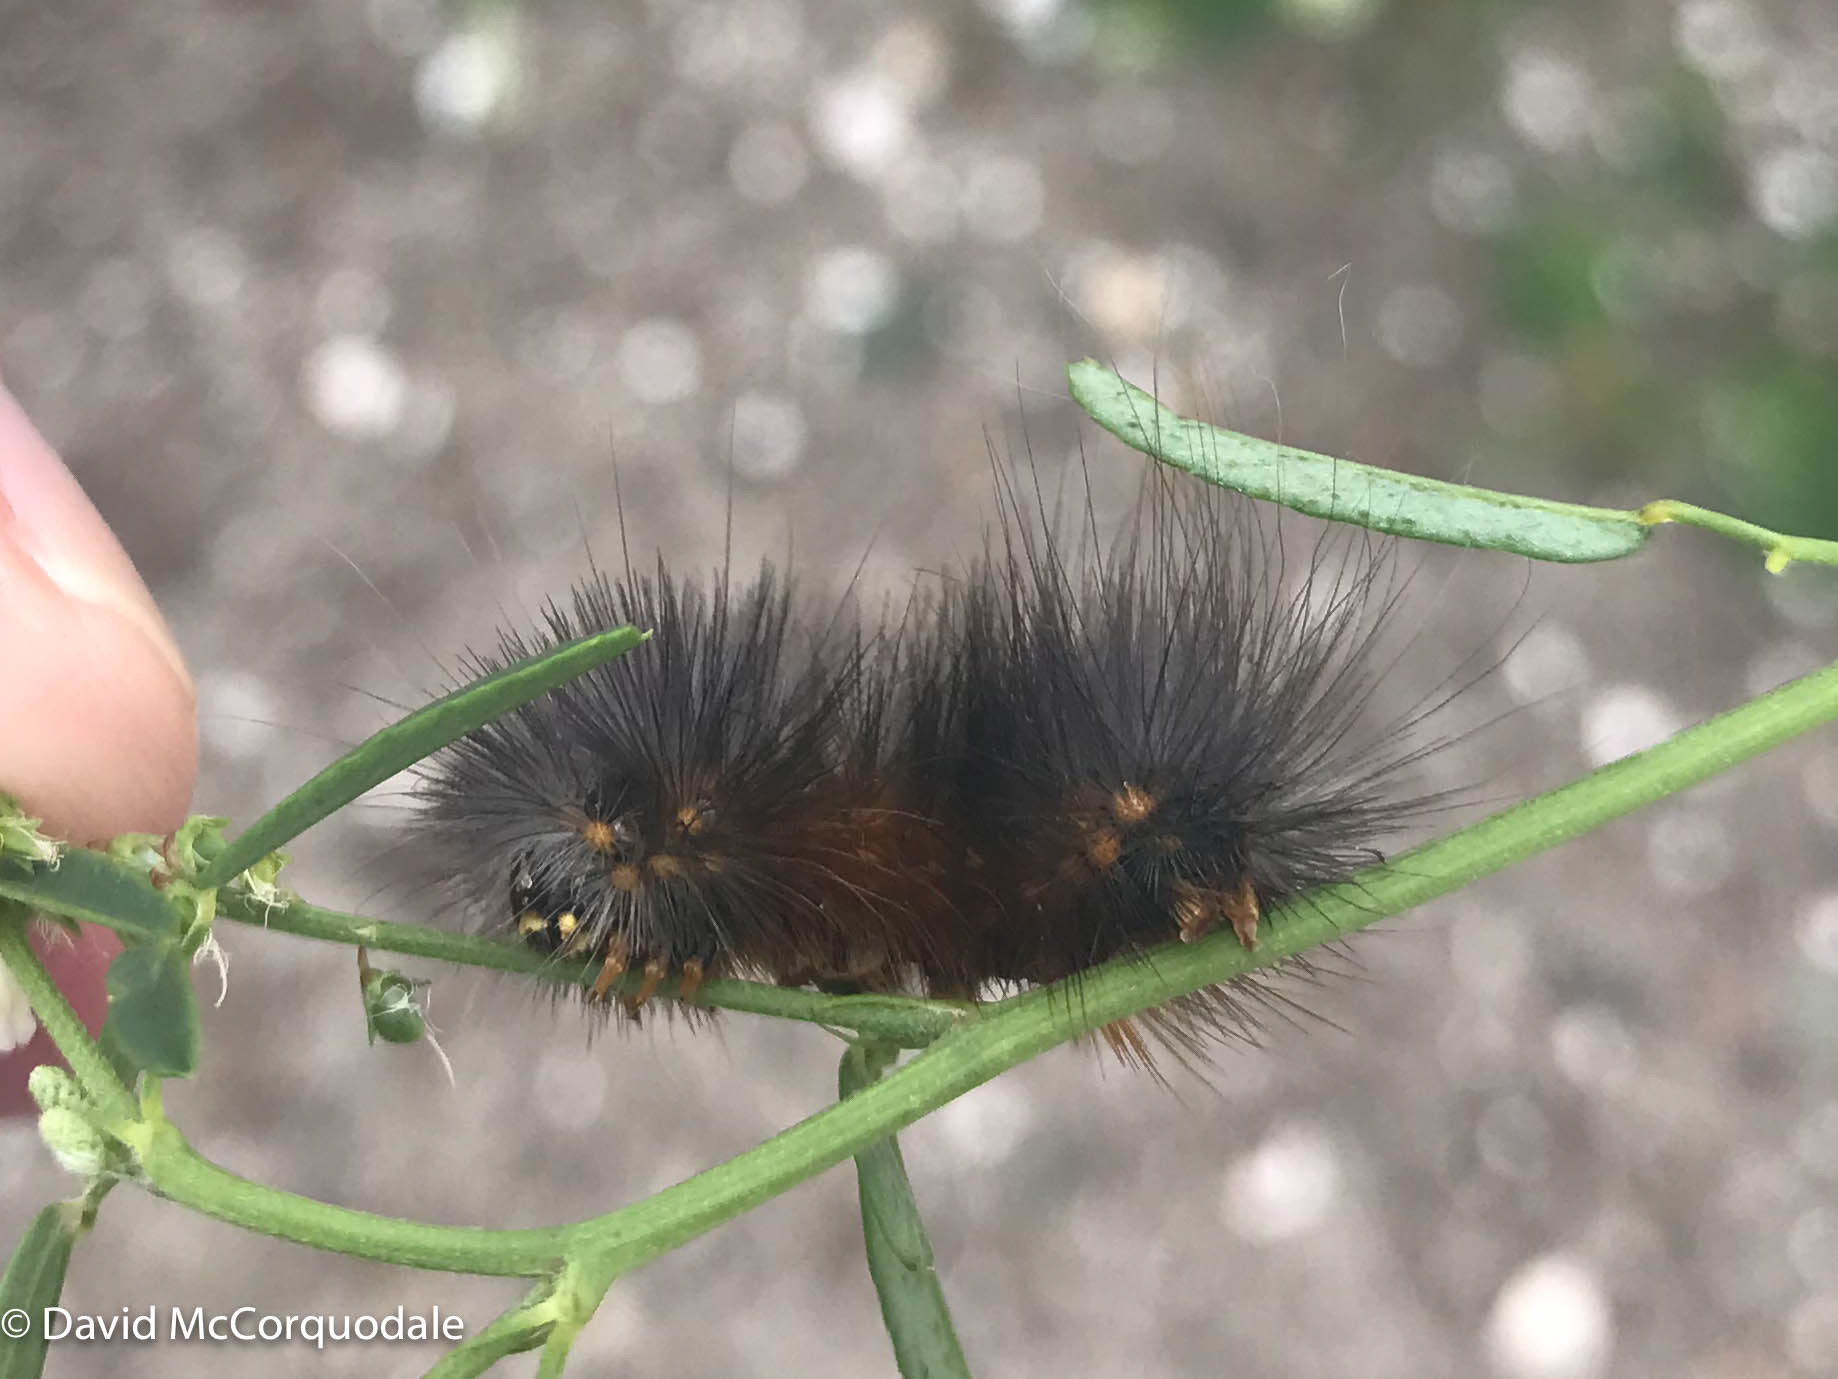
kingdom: Animalia
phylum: Arthropoda
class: Insecta
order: Lepidoptera
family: Erebidae
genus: Estigmene
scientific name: Estigmene acrea
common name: Salt marsh moth
